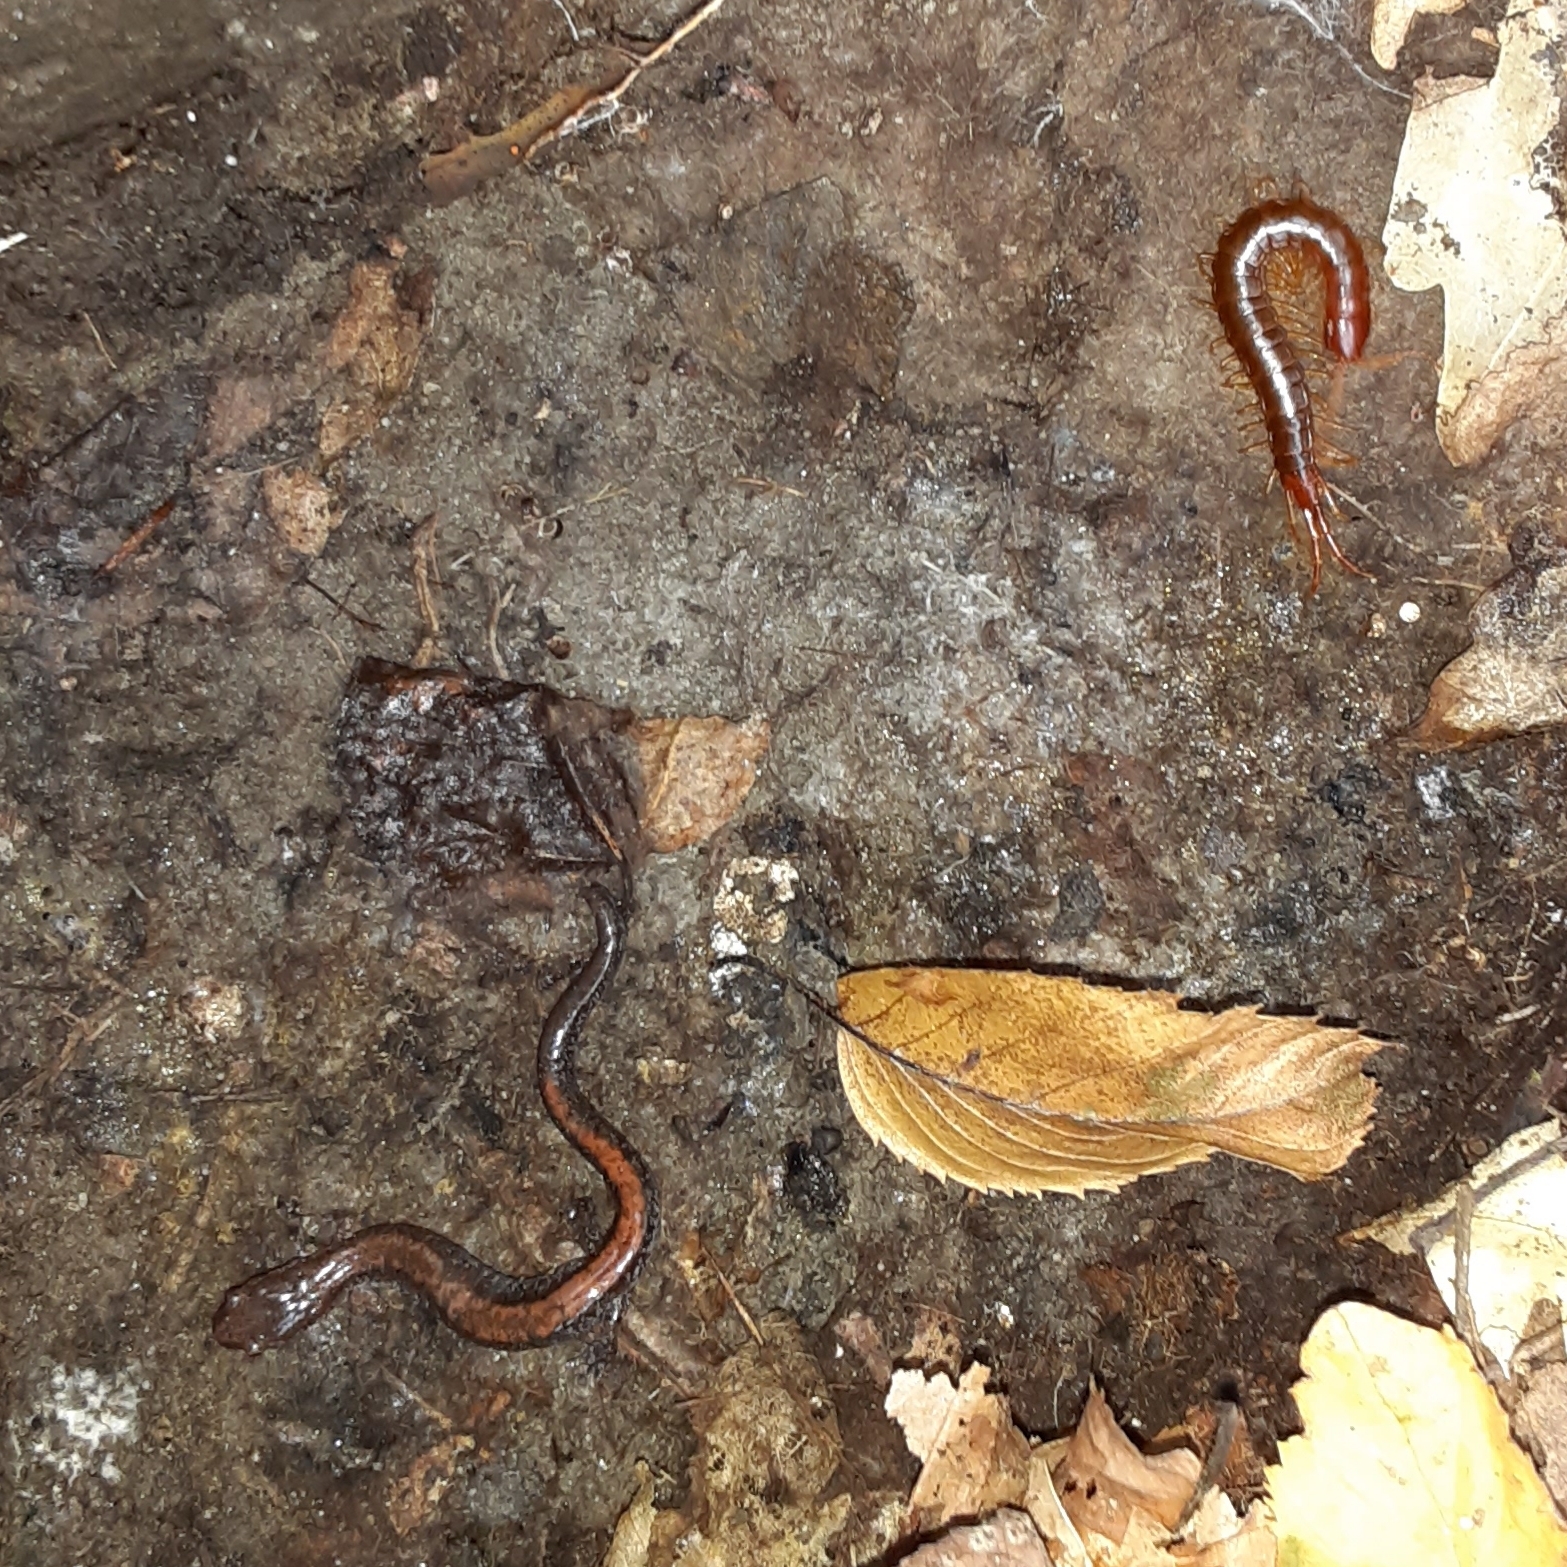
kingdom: Animalia
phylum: Chordata
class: Amphibia
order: Caudata
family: Plethodontidae
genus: Plethodon
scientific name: Plethodon cinereus
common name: Redback salamander
